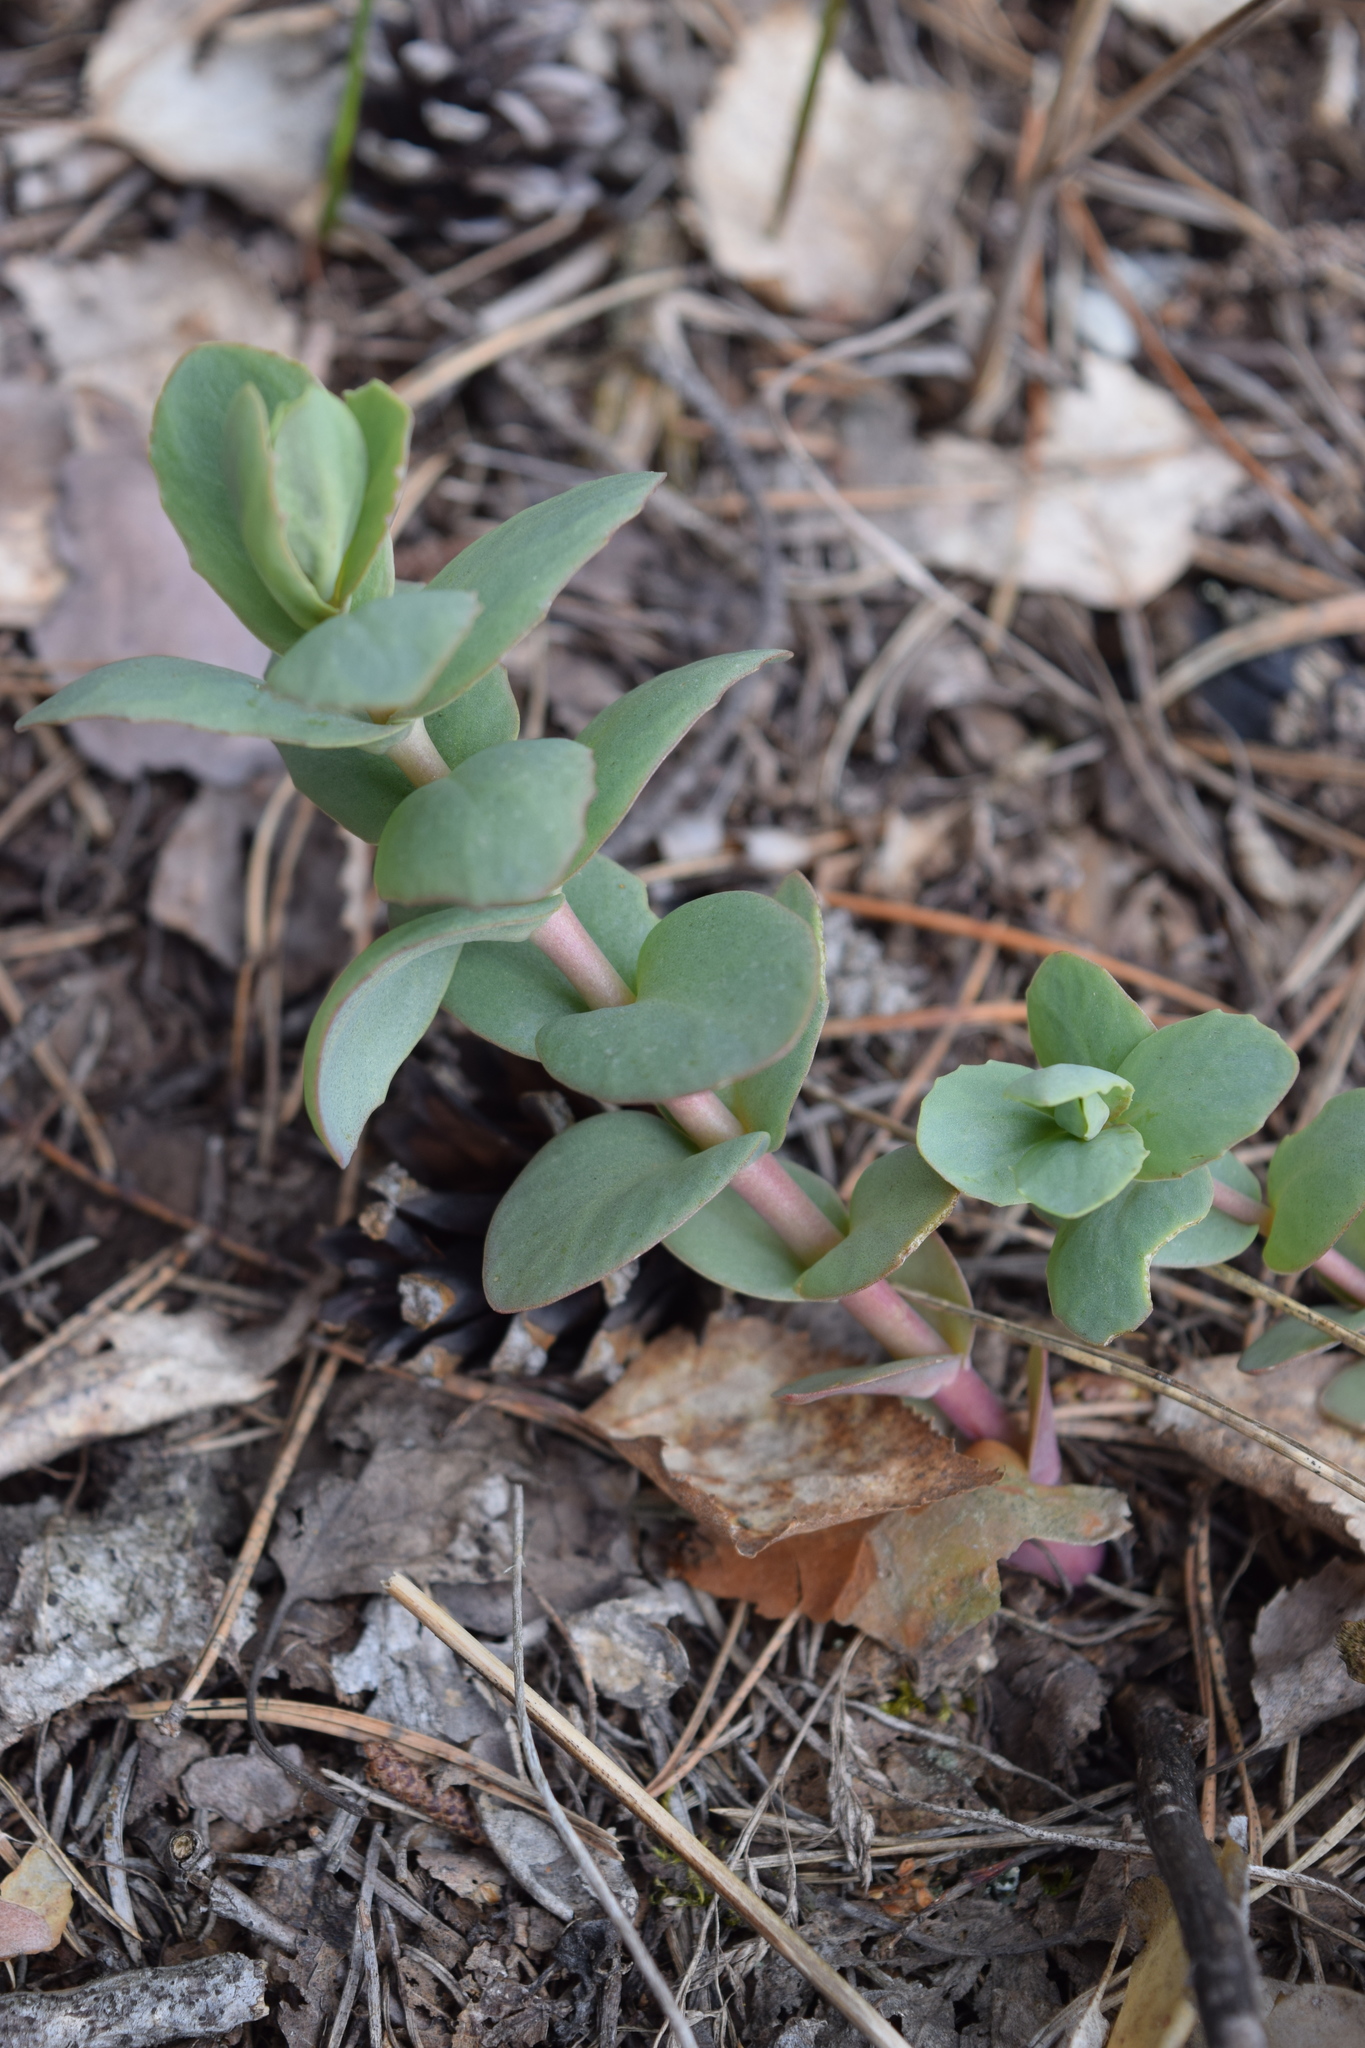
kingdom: Plantae
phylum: Tracheophyta
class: Magnoliopsida
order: Saxifragales
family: Crassulaceae
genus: Hylotelephium
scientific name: Hylotelephium maximum
